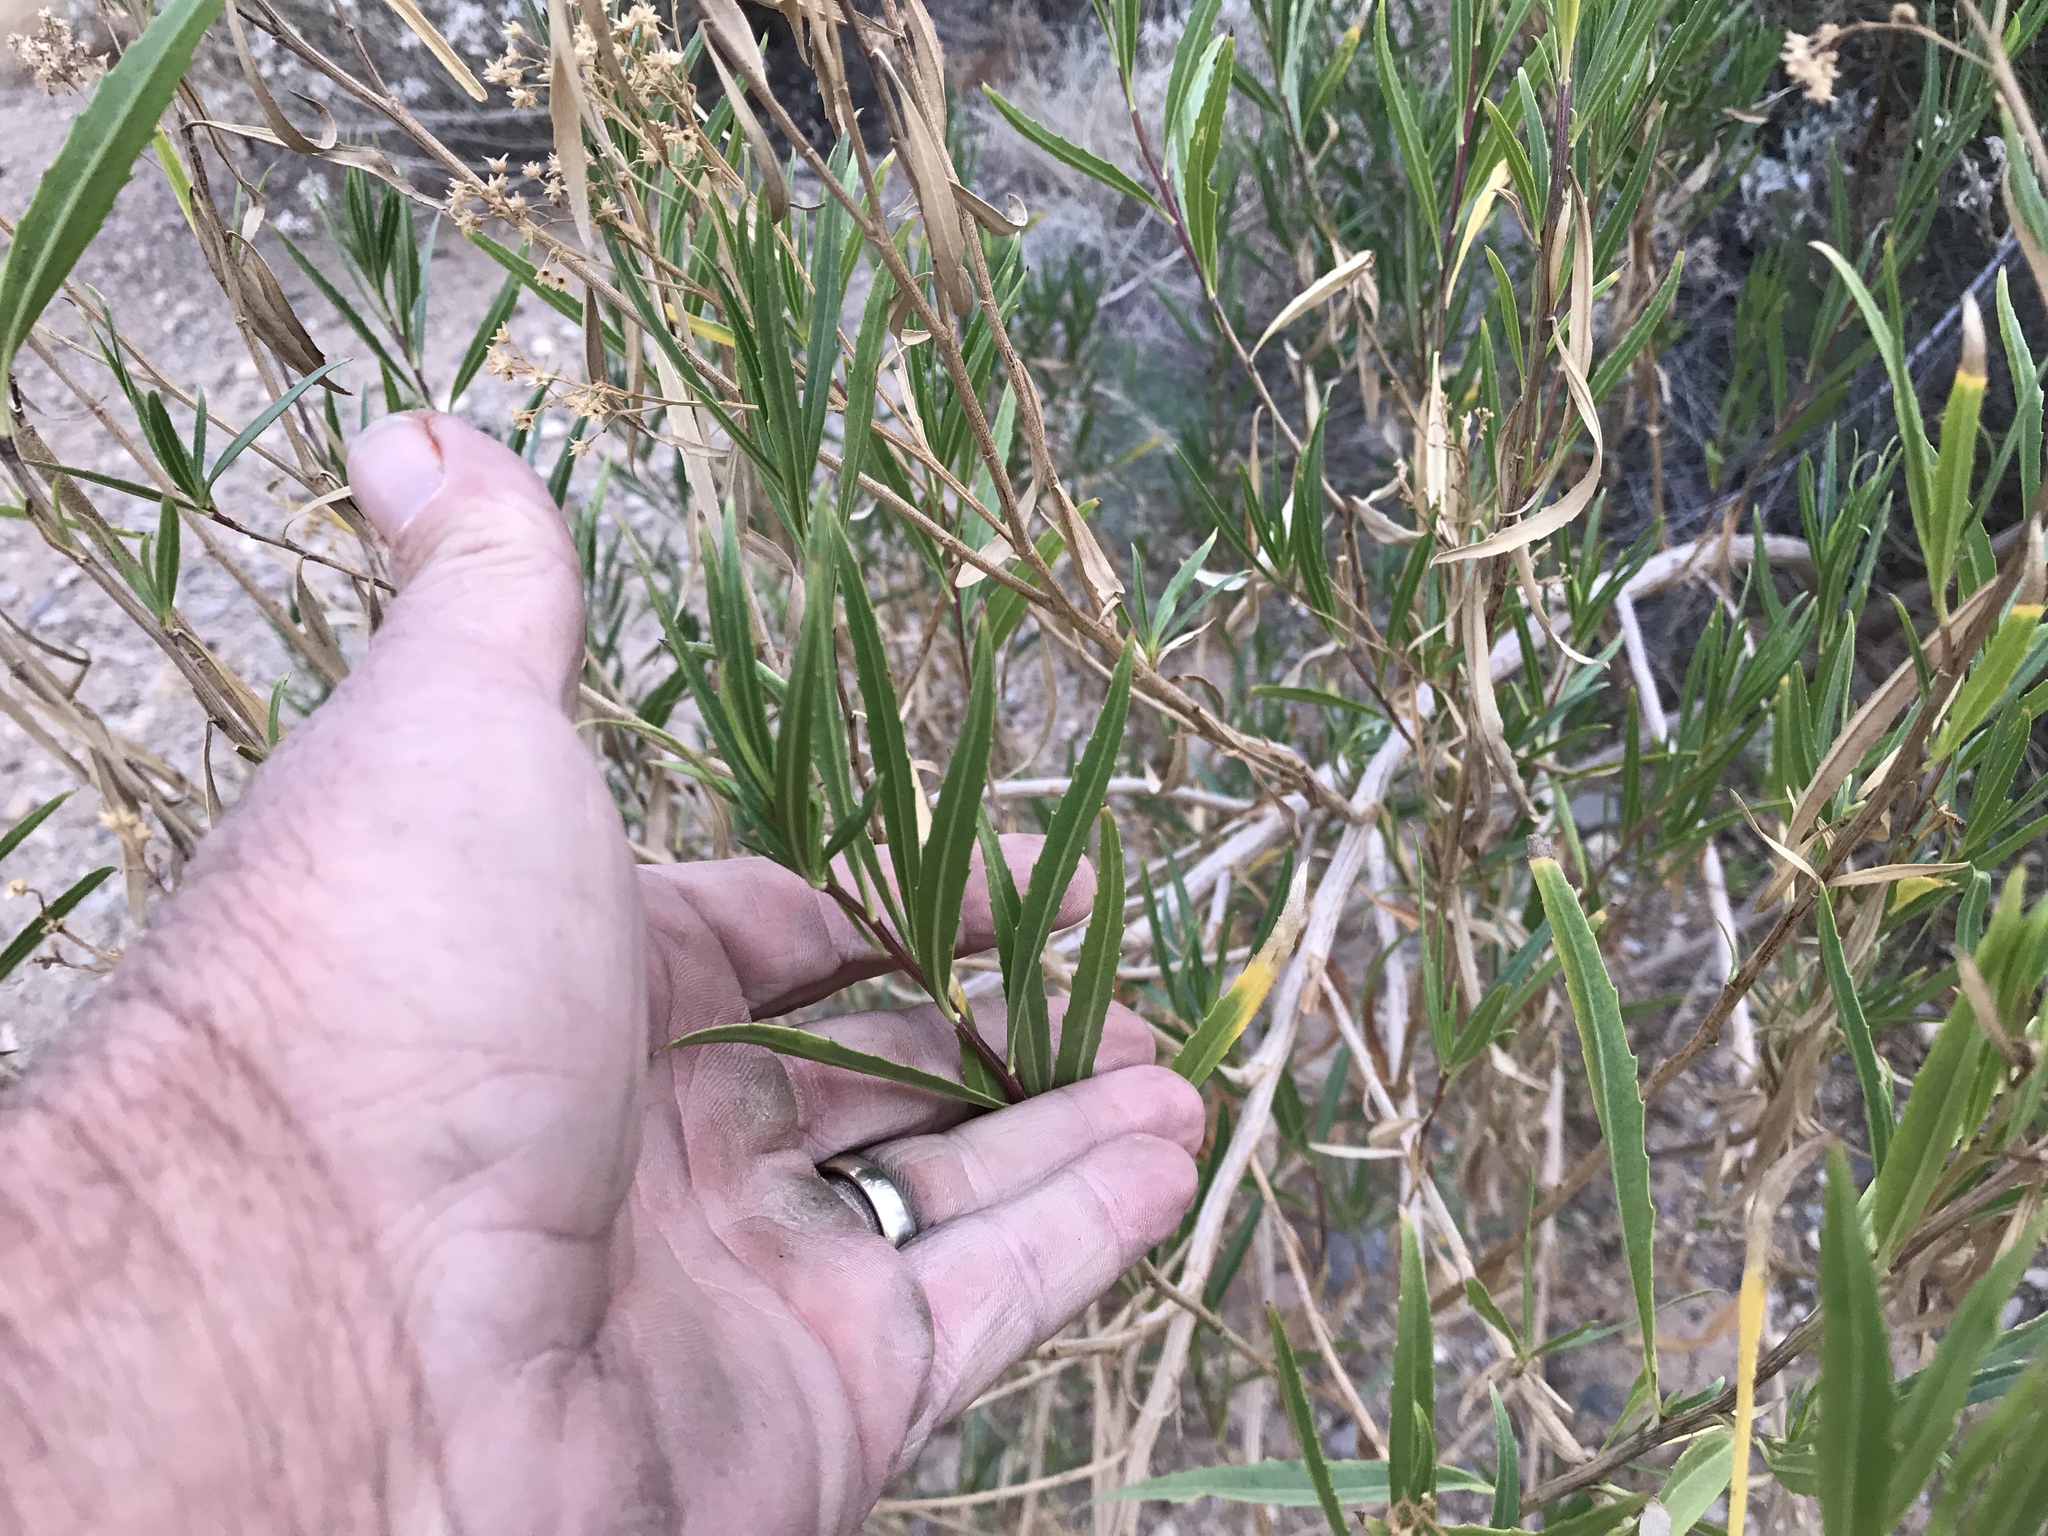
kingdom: Plantae
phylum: Tracheophyta
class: Magnoliopsida
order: Asterales
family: Asteraceae
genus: Baccharis
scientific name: Baccharis salicifolia
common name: Sticky baccharis
